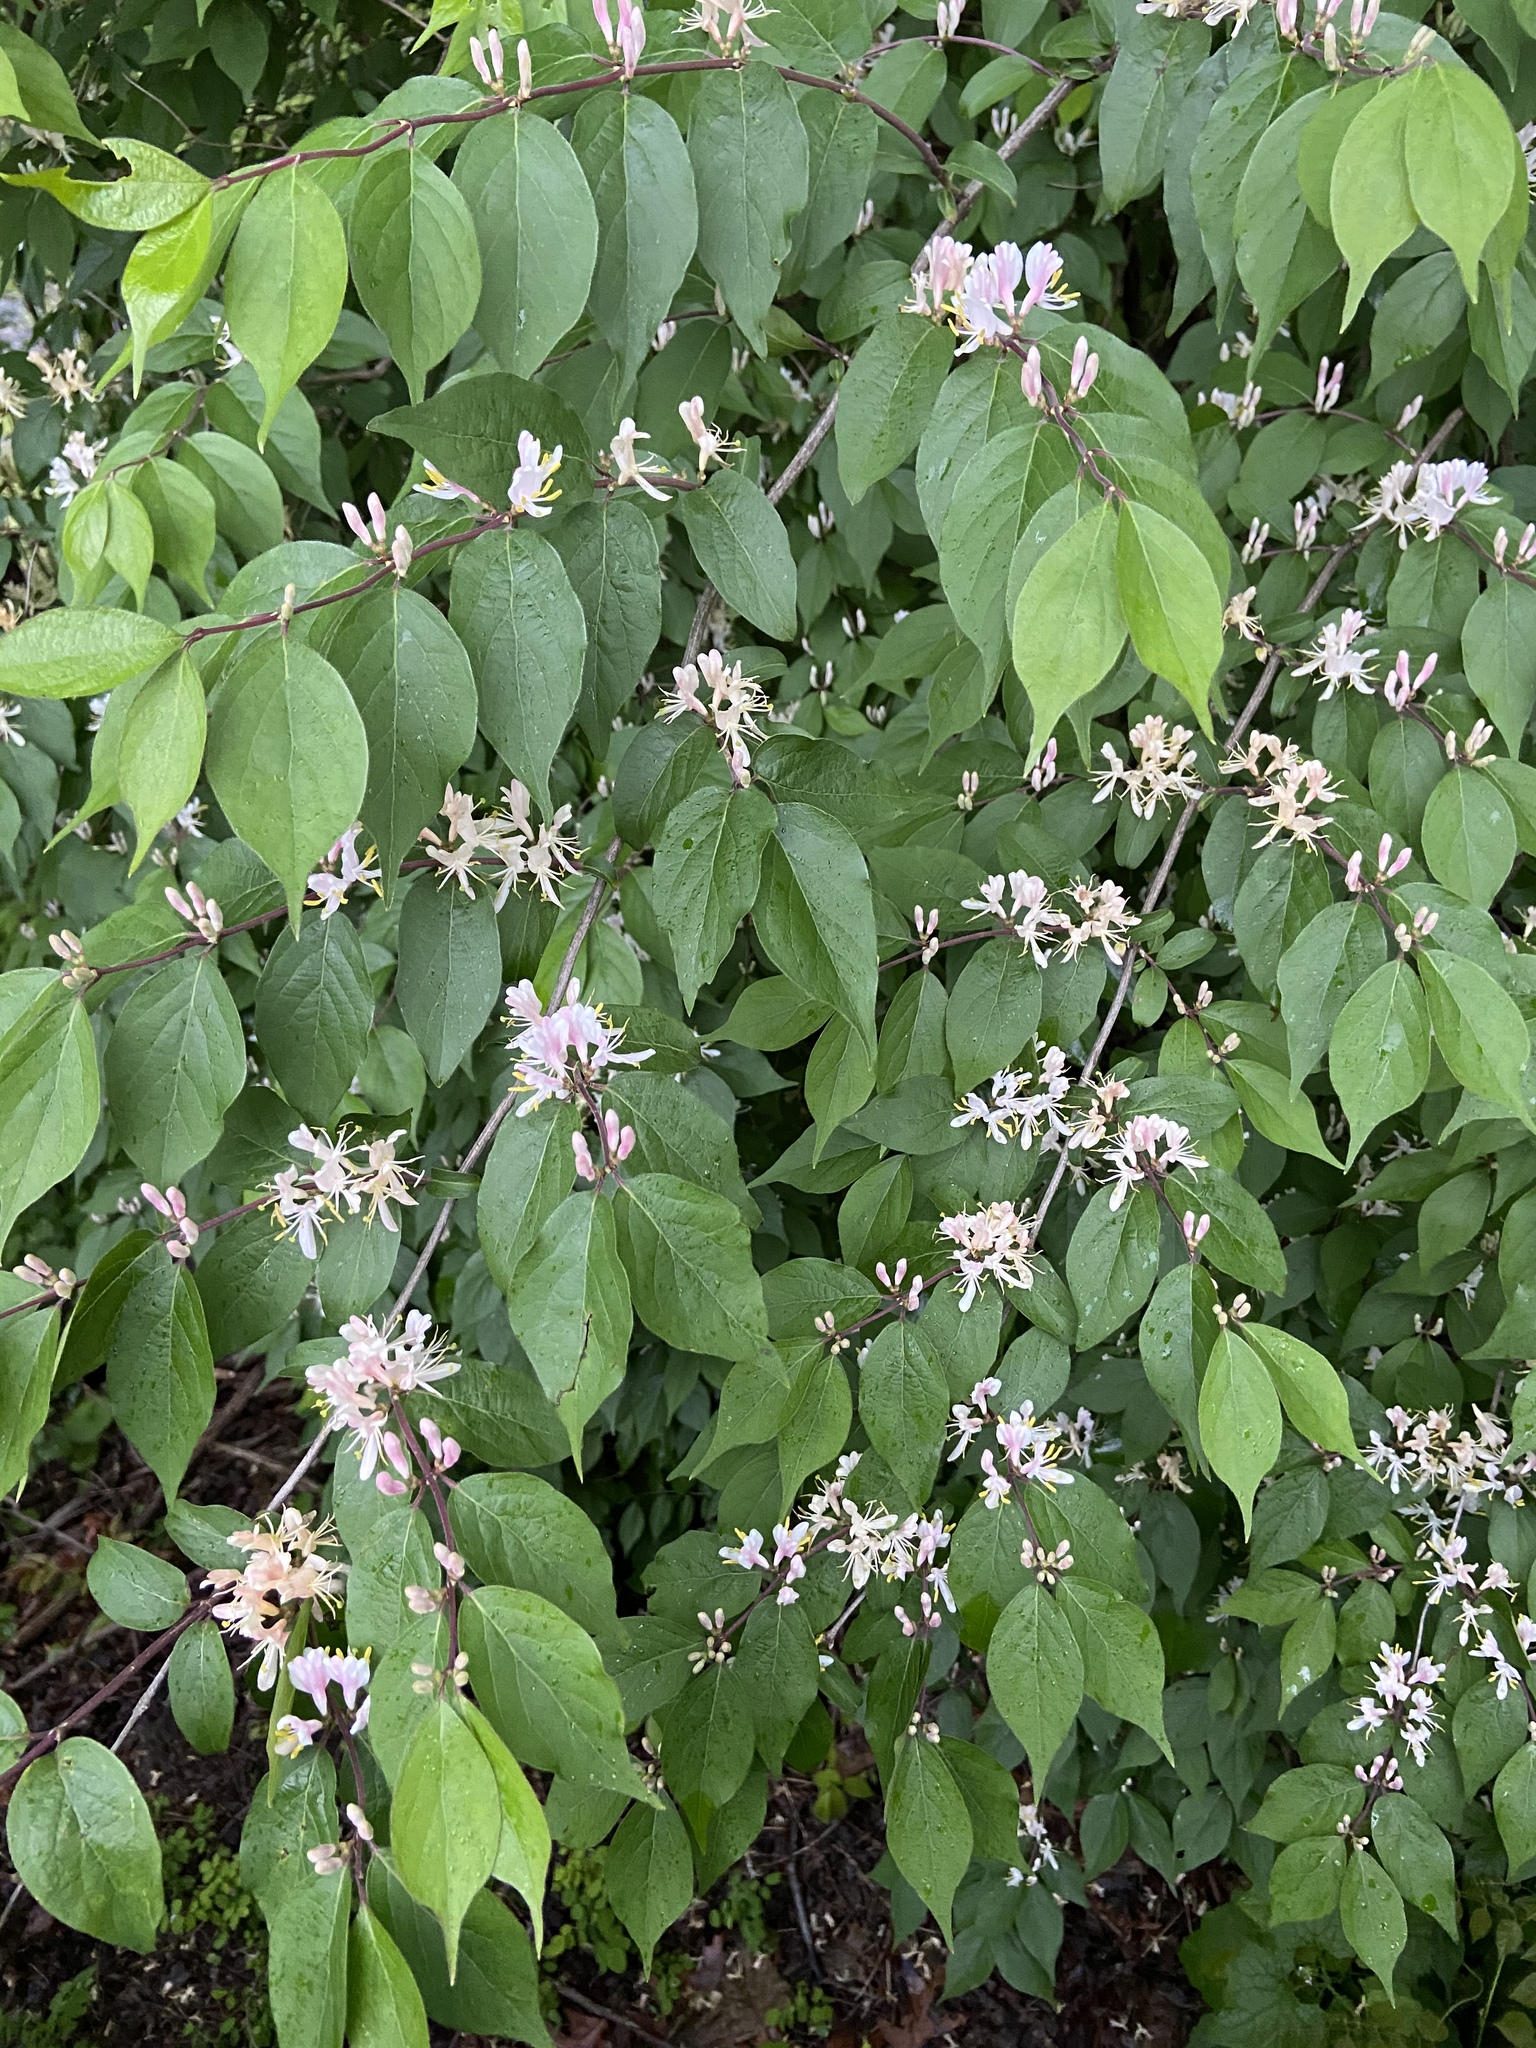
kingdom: Plantae
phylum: Tracheophyta
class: Magnoliopsida
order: Dipsacales
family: Caprifoliaceae
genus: Lonicera
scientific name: Lonicera maackii
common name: Amur honeysuckle
